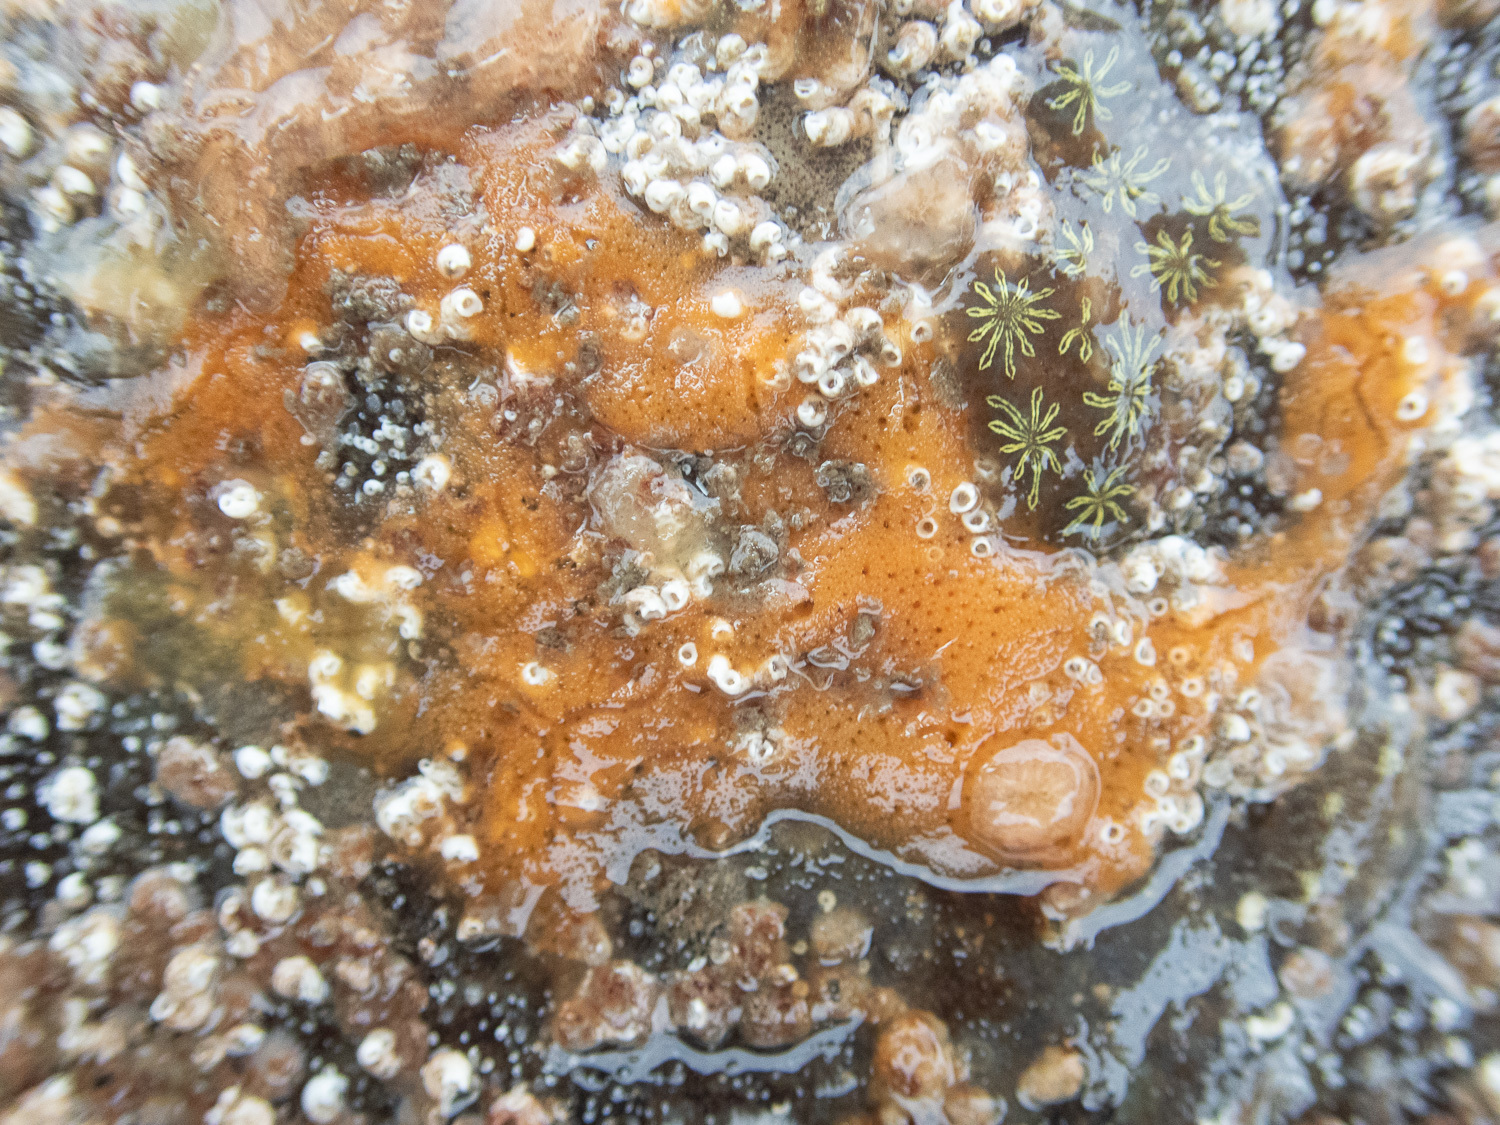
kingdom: Animalia
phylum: Porifera
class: Demospongiae
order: Poecilosclerida
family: Esperiopsidae
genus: Amphilectus
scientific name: Amphilectus fucorum
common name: Carrot-sponge
